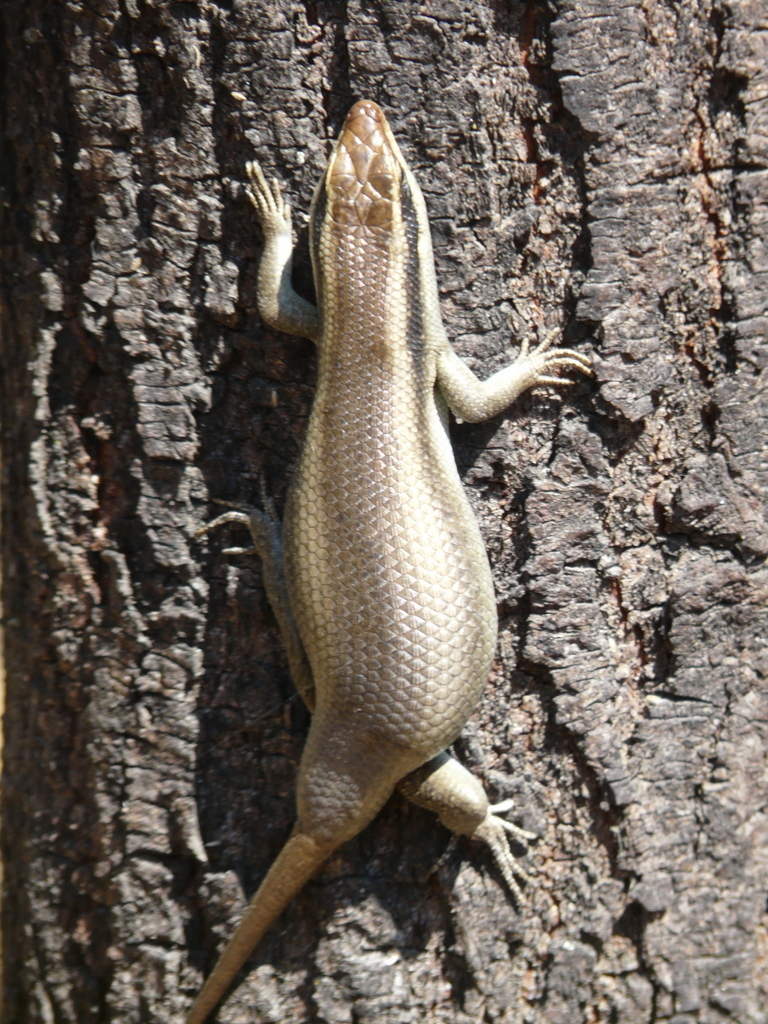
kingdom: Animalia
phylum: Chordata
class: Squamata
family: Scincidae
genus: Trachylepis
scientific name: Trachylepis wahlbergii
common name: Wahlberg’s striped skink
